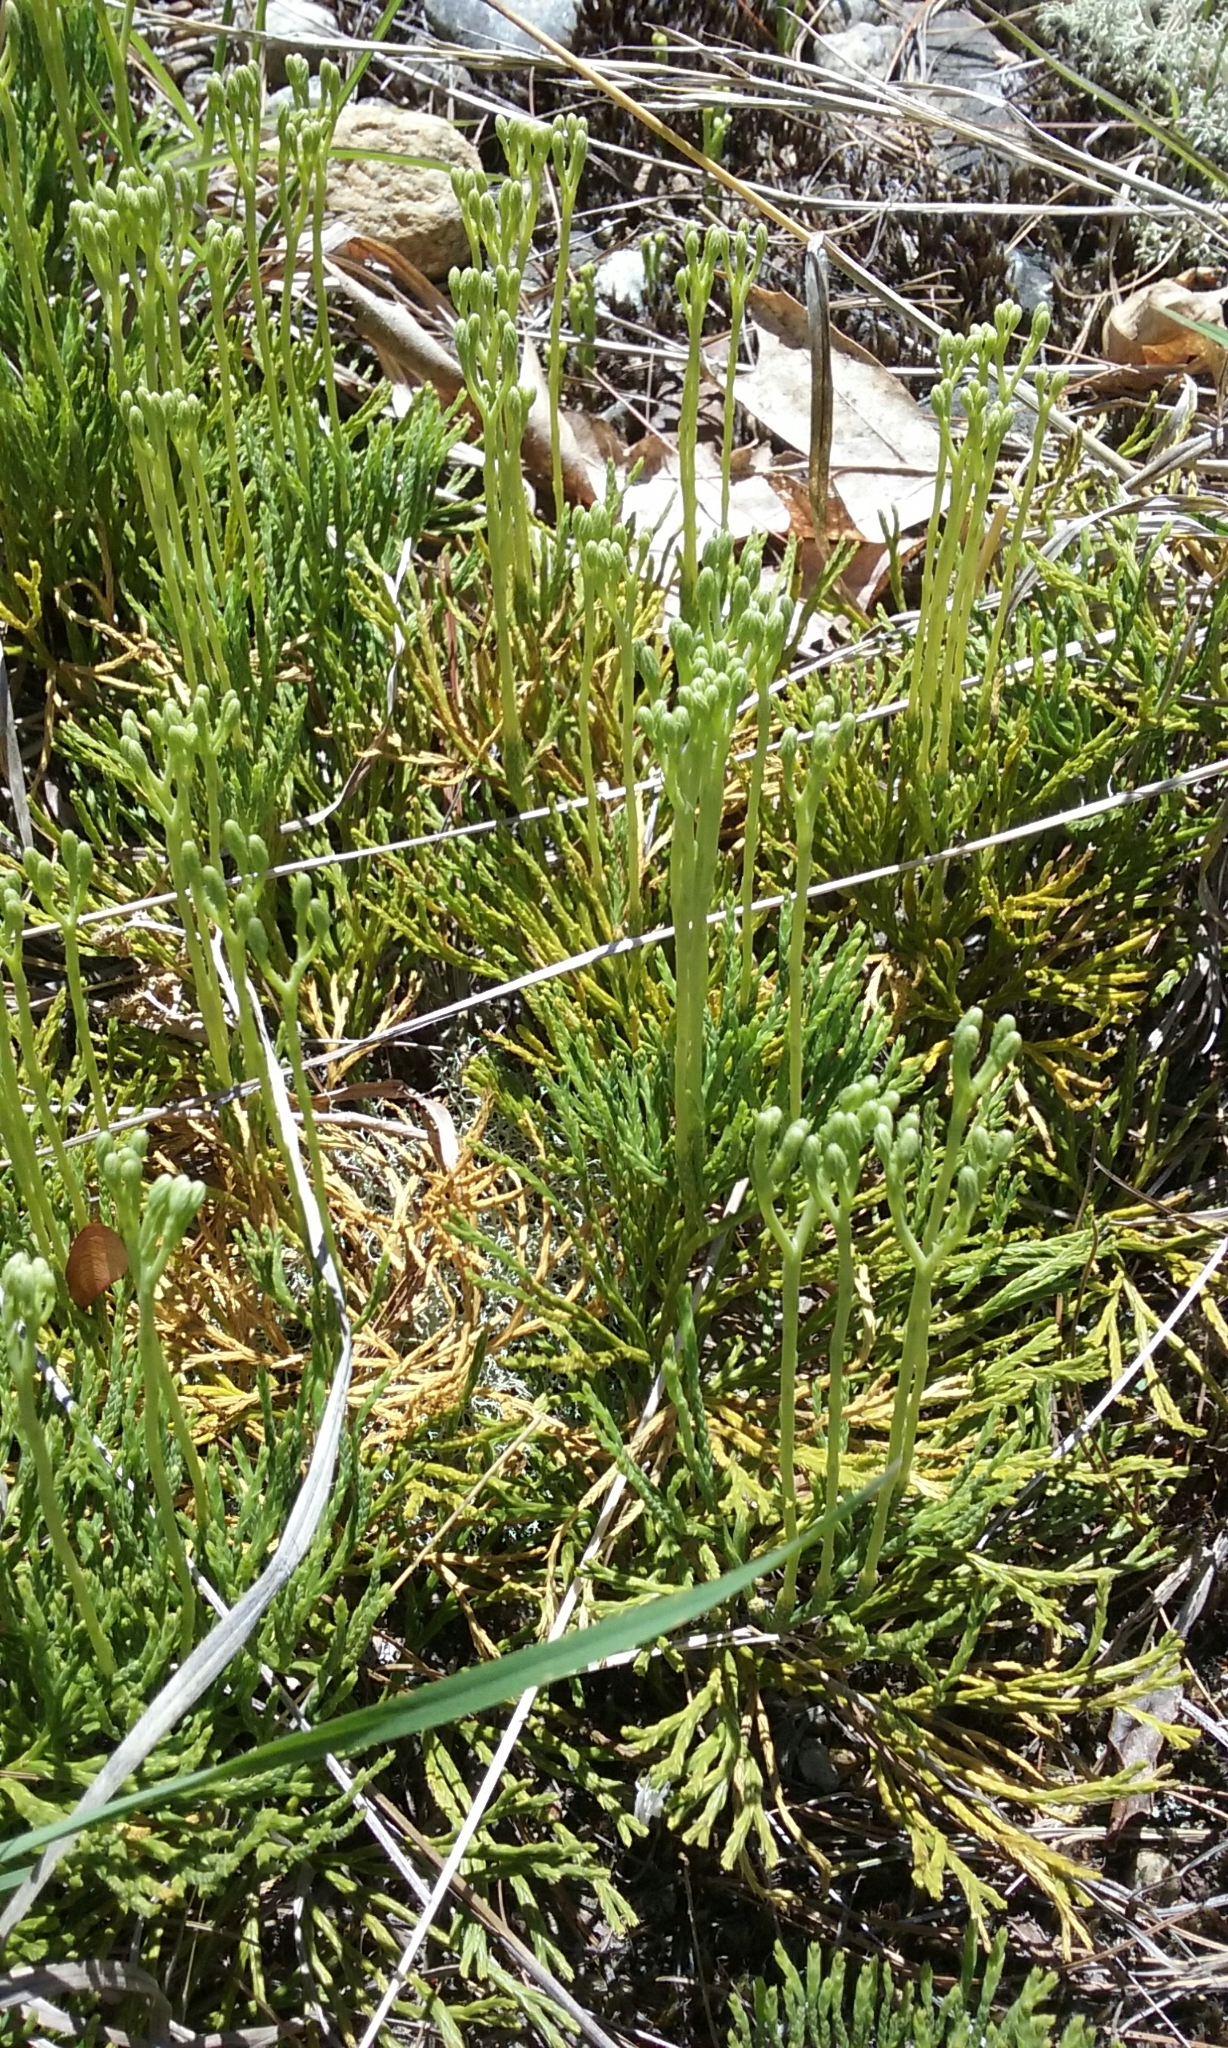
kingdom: Plantae
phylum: Tracheophyta
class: Lycopodiopsida
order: Lycopodiales
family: Lycopodiaceae
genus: Diphasiastrum
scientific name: Diphasiastrum tristachyum
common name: Blue ground-cedar
